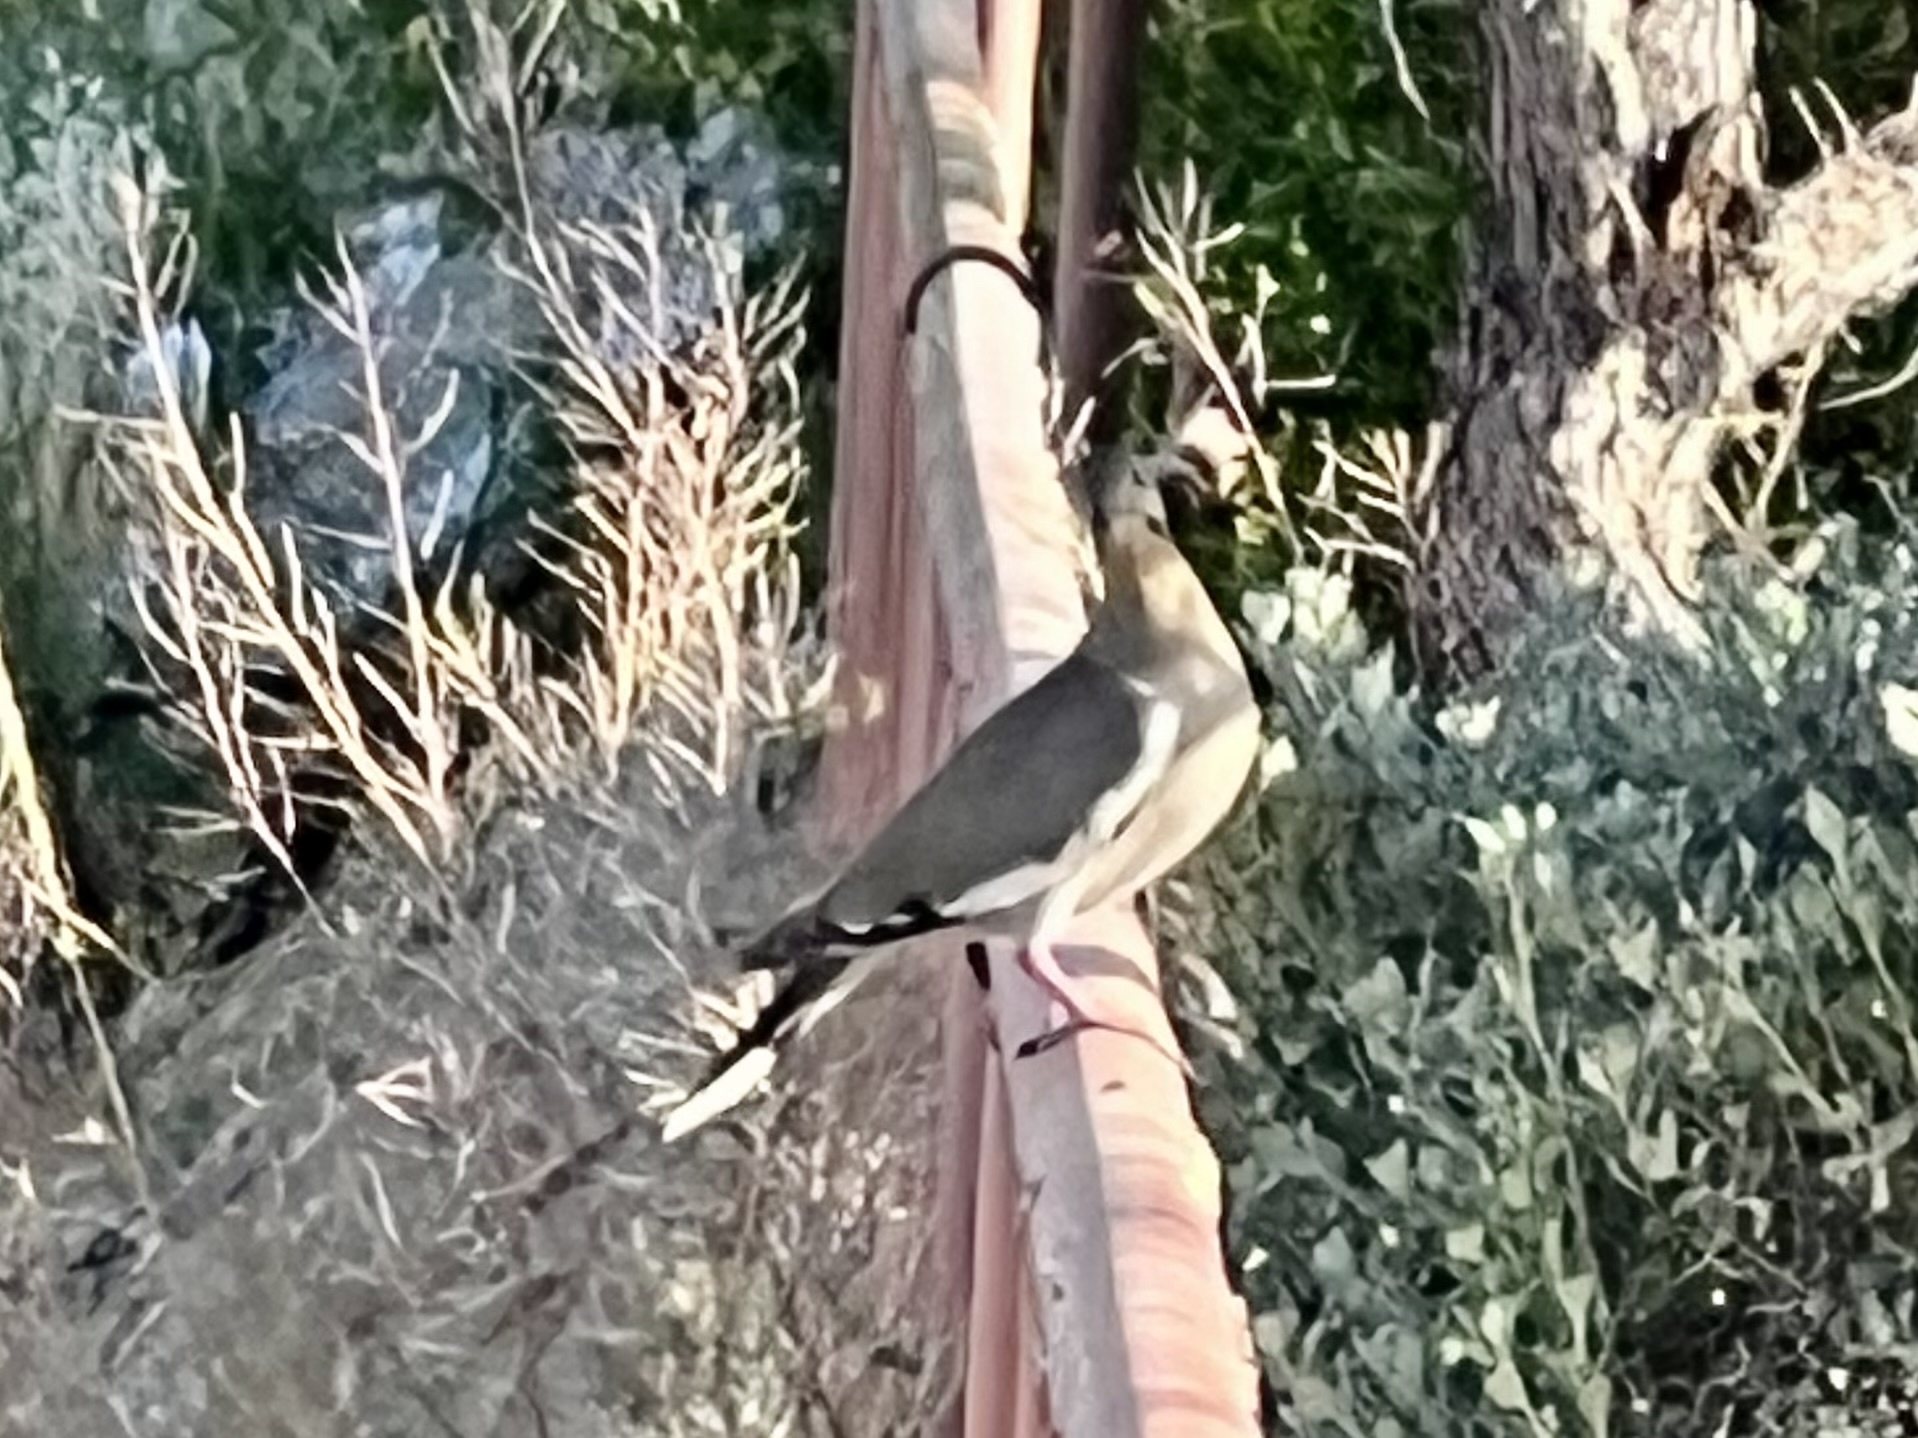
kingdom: Animalia
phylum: Chordata
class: Aves
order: Columbiformes
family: Columbidae
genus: Zenaida
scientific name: Zenaida asiatica
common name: White-winged dove
